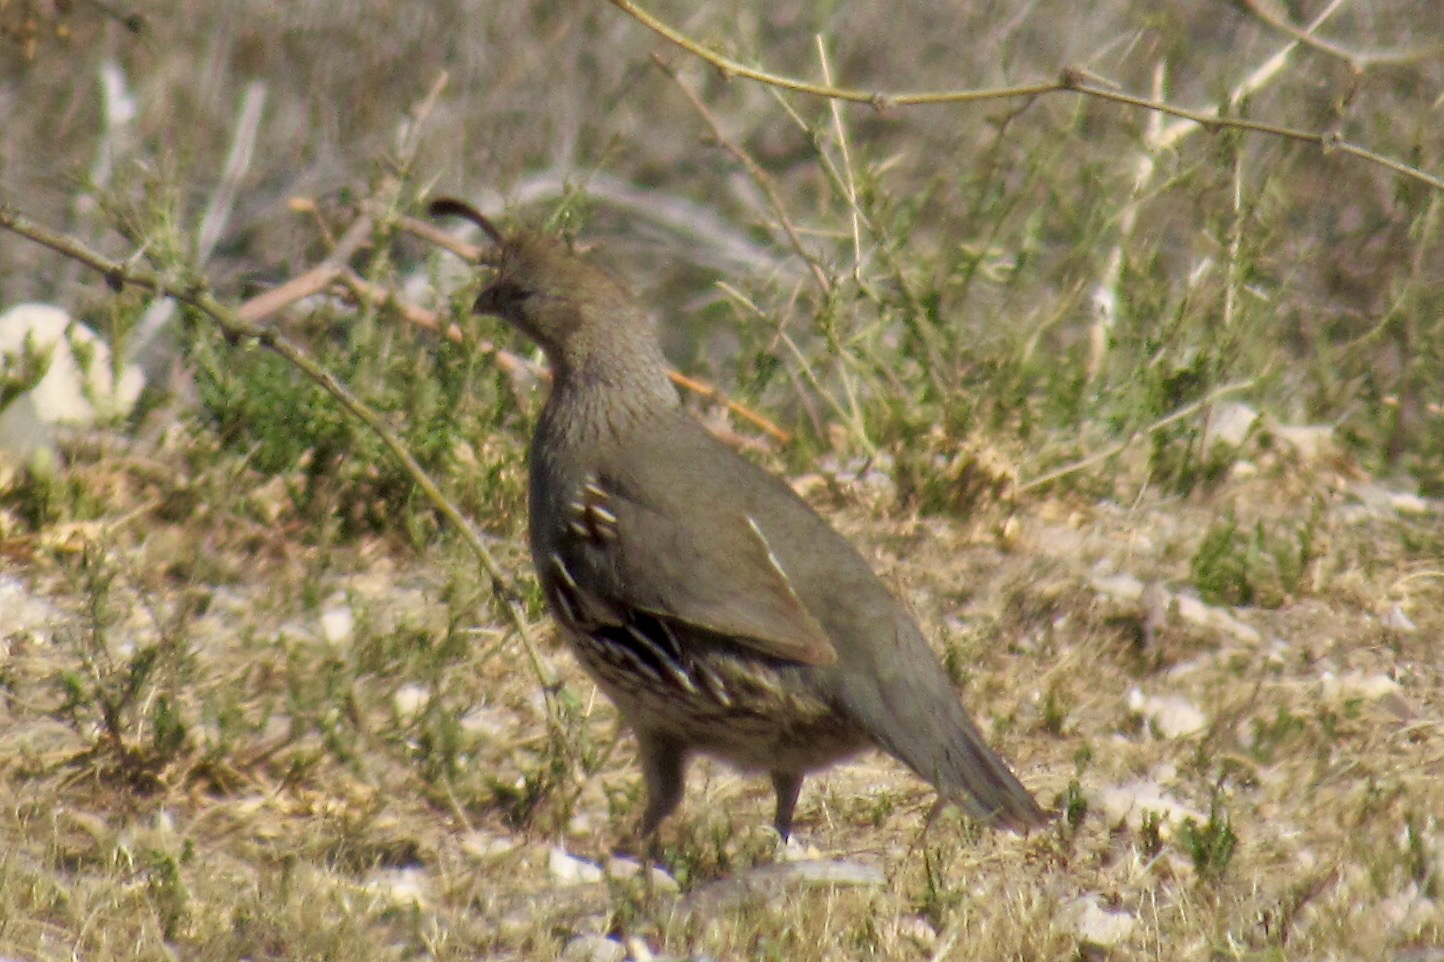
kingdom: Animalia
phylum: Chordata
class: Aves
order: Galliformes
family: Odontophoridae
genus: Callipepla
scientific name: Callipepla gambelii
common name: Gambel's quail
